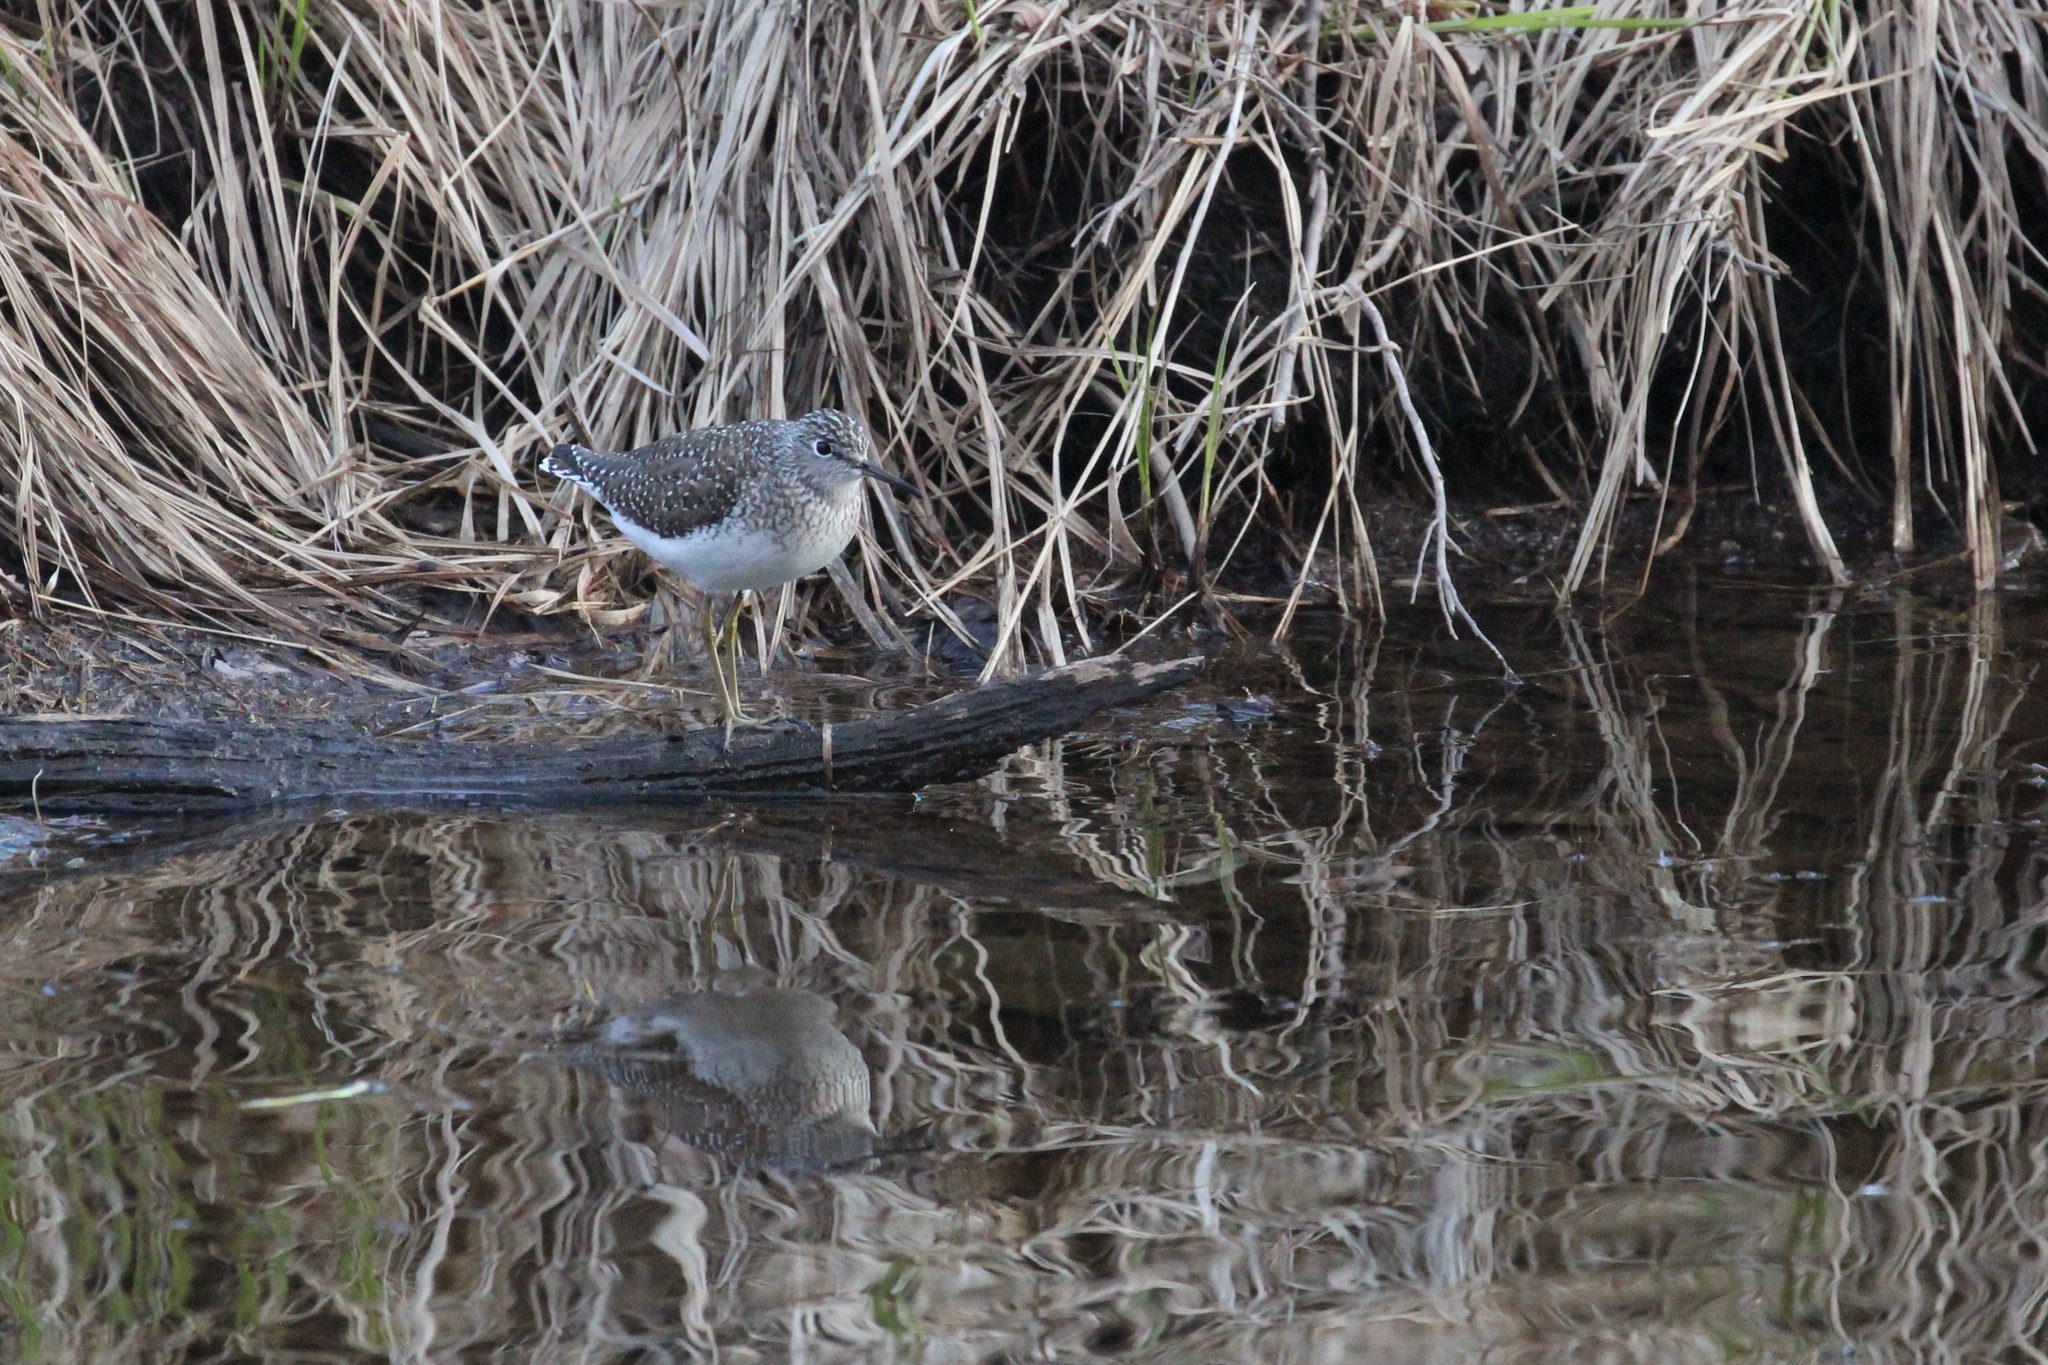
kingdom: Animalia
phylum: Chordata
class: Aves
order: Charadriiformes
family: Scolopacidae
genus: Tringa
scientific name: Tringa solitaria
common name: Solitary sandpiper
